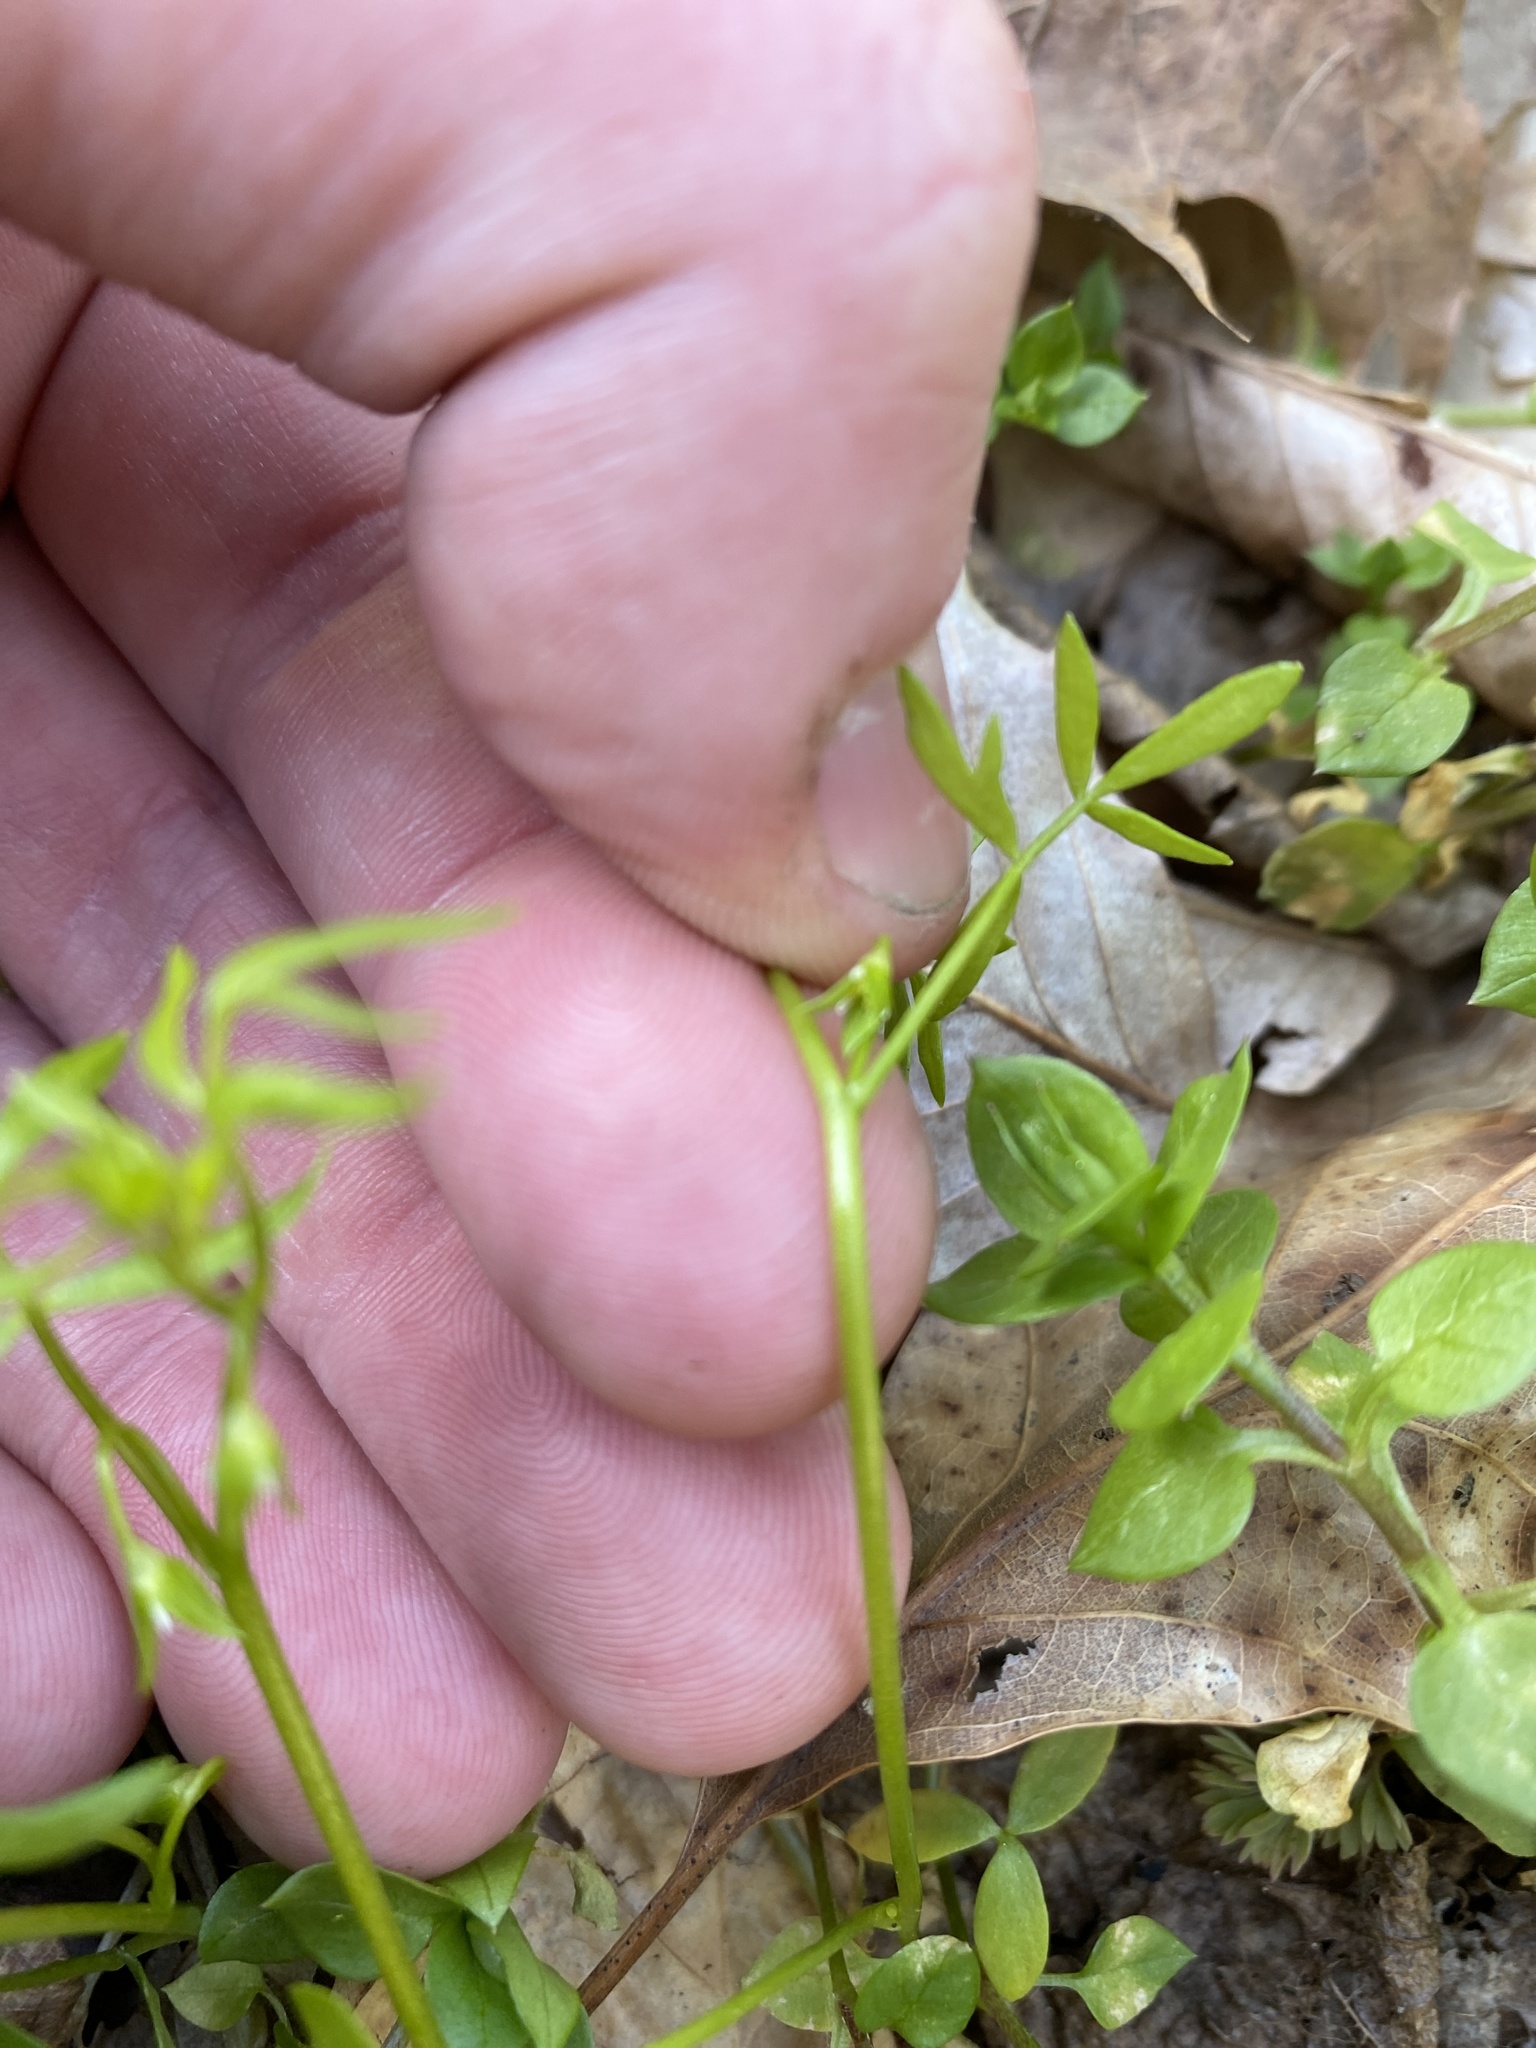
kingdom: Plantae
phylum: Tracheophyta
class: Magnoliopsida
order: Brassicales
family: Limnanthaceae
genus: Floerkea
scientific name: Floerkea proserpinacoides
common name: False mermaid
